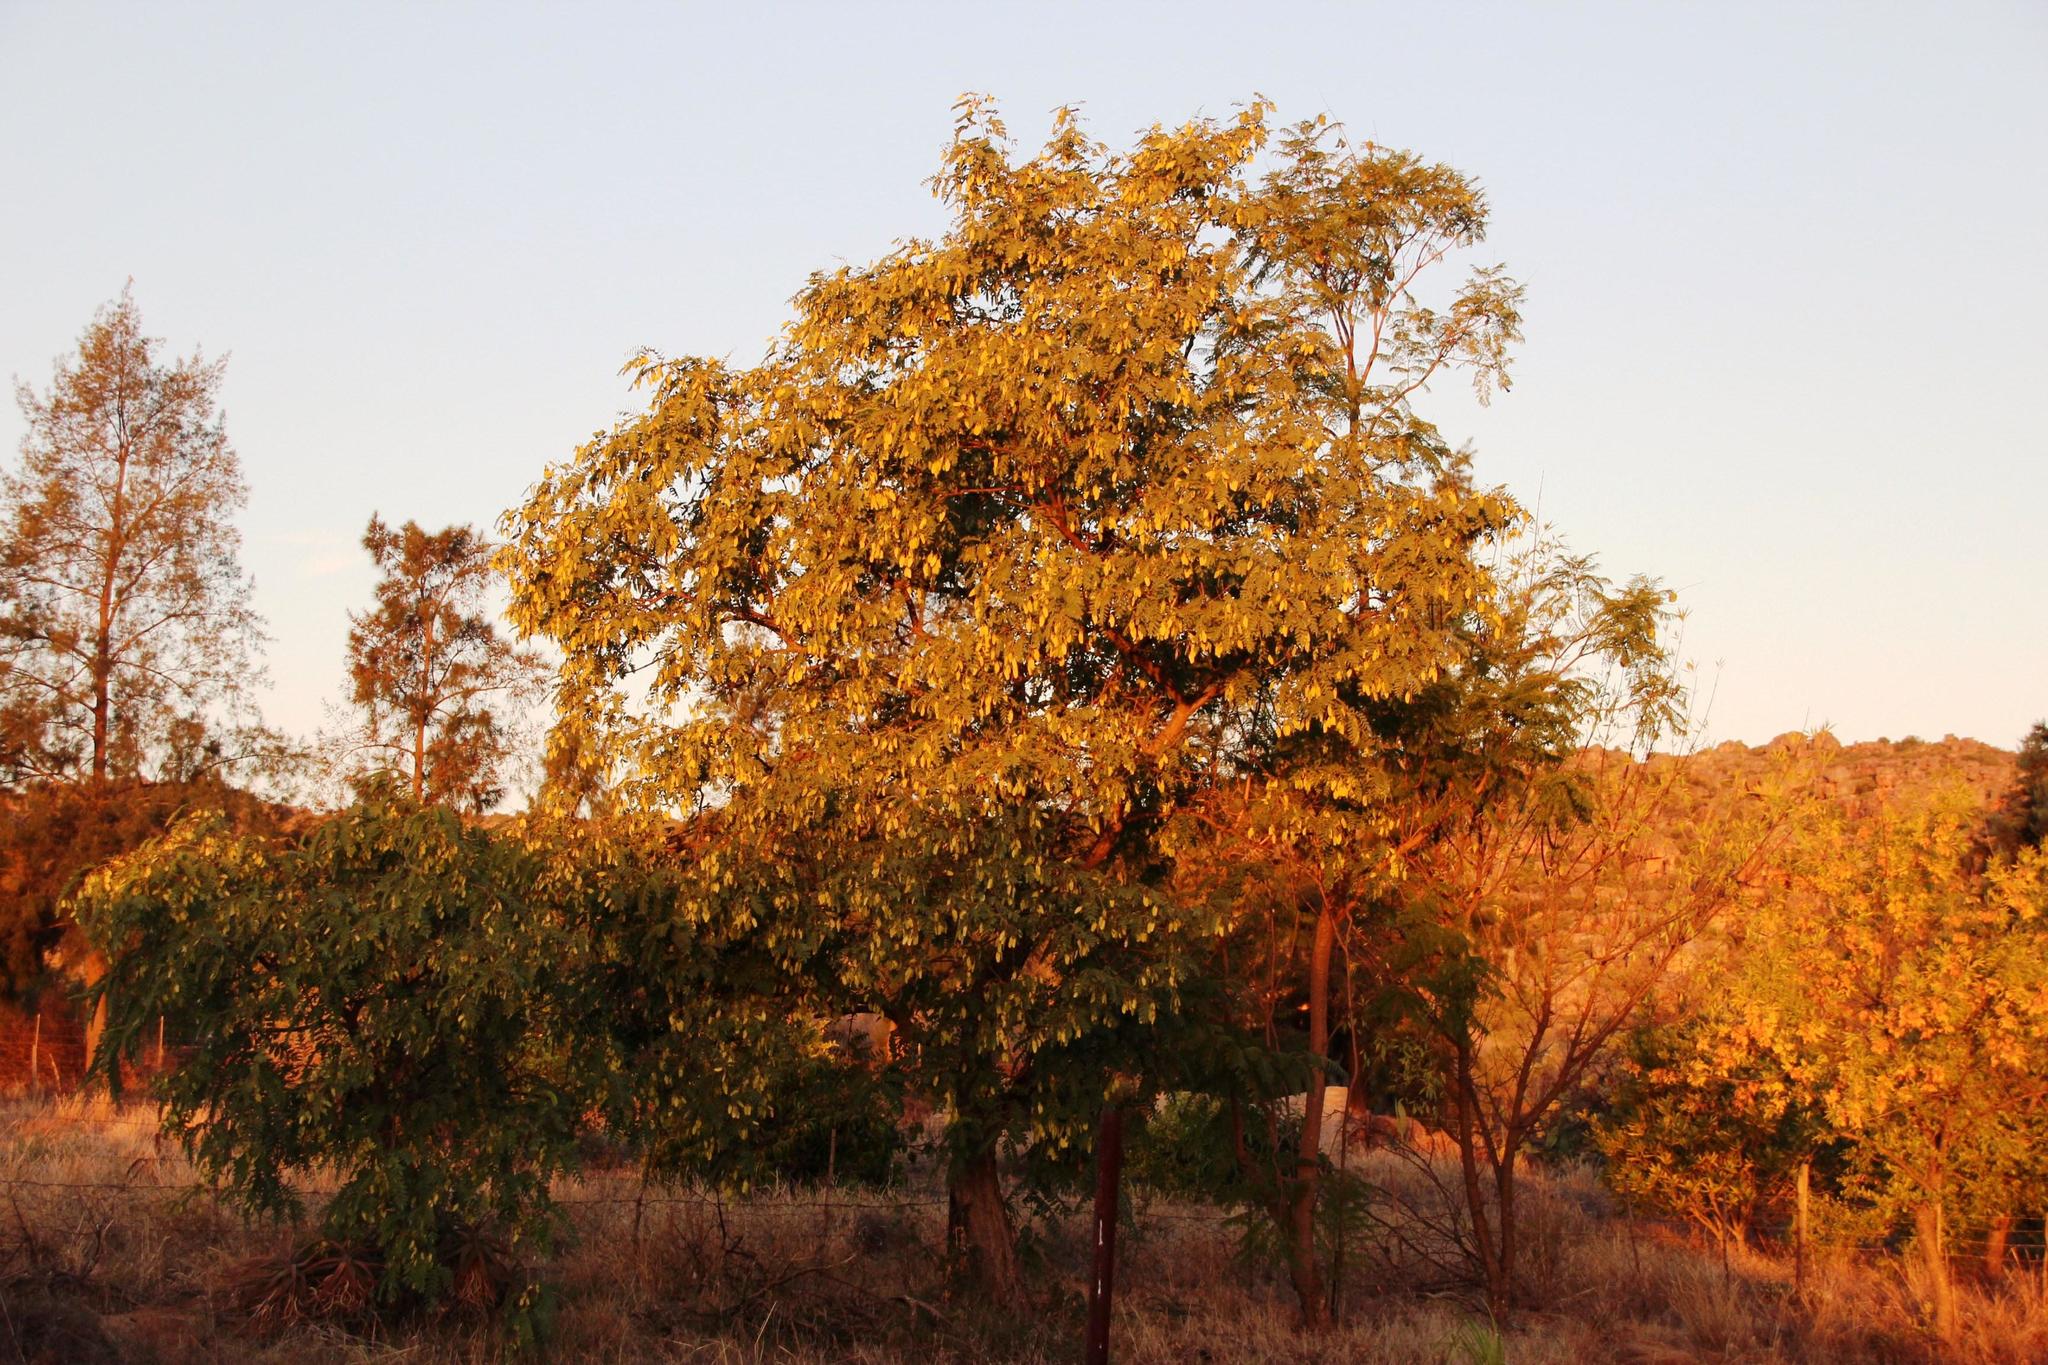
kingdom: Plantae
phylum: Tracheophyta
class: Magnoliopsida
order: Lamiales
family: Bignoniaceae
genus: Jacaranda
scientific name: Jacaranda mimosifolia
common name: Black poui
